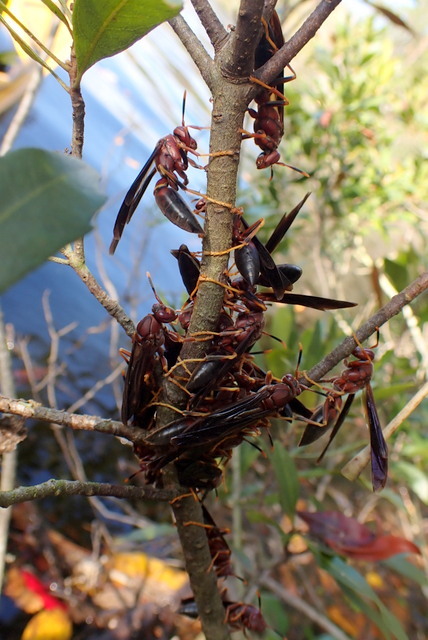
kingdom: Animalia
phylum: Arthropoda
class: Insecta
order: Hymenoptera
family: Eumenidae
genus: Polistes
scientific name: Polistes annularis
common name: Ringed paper wasp
